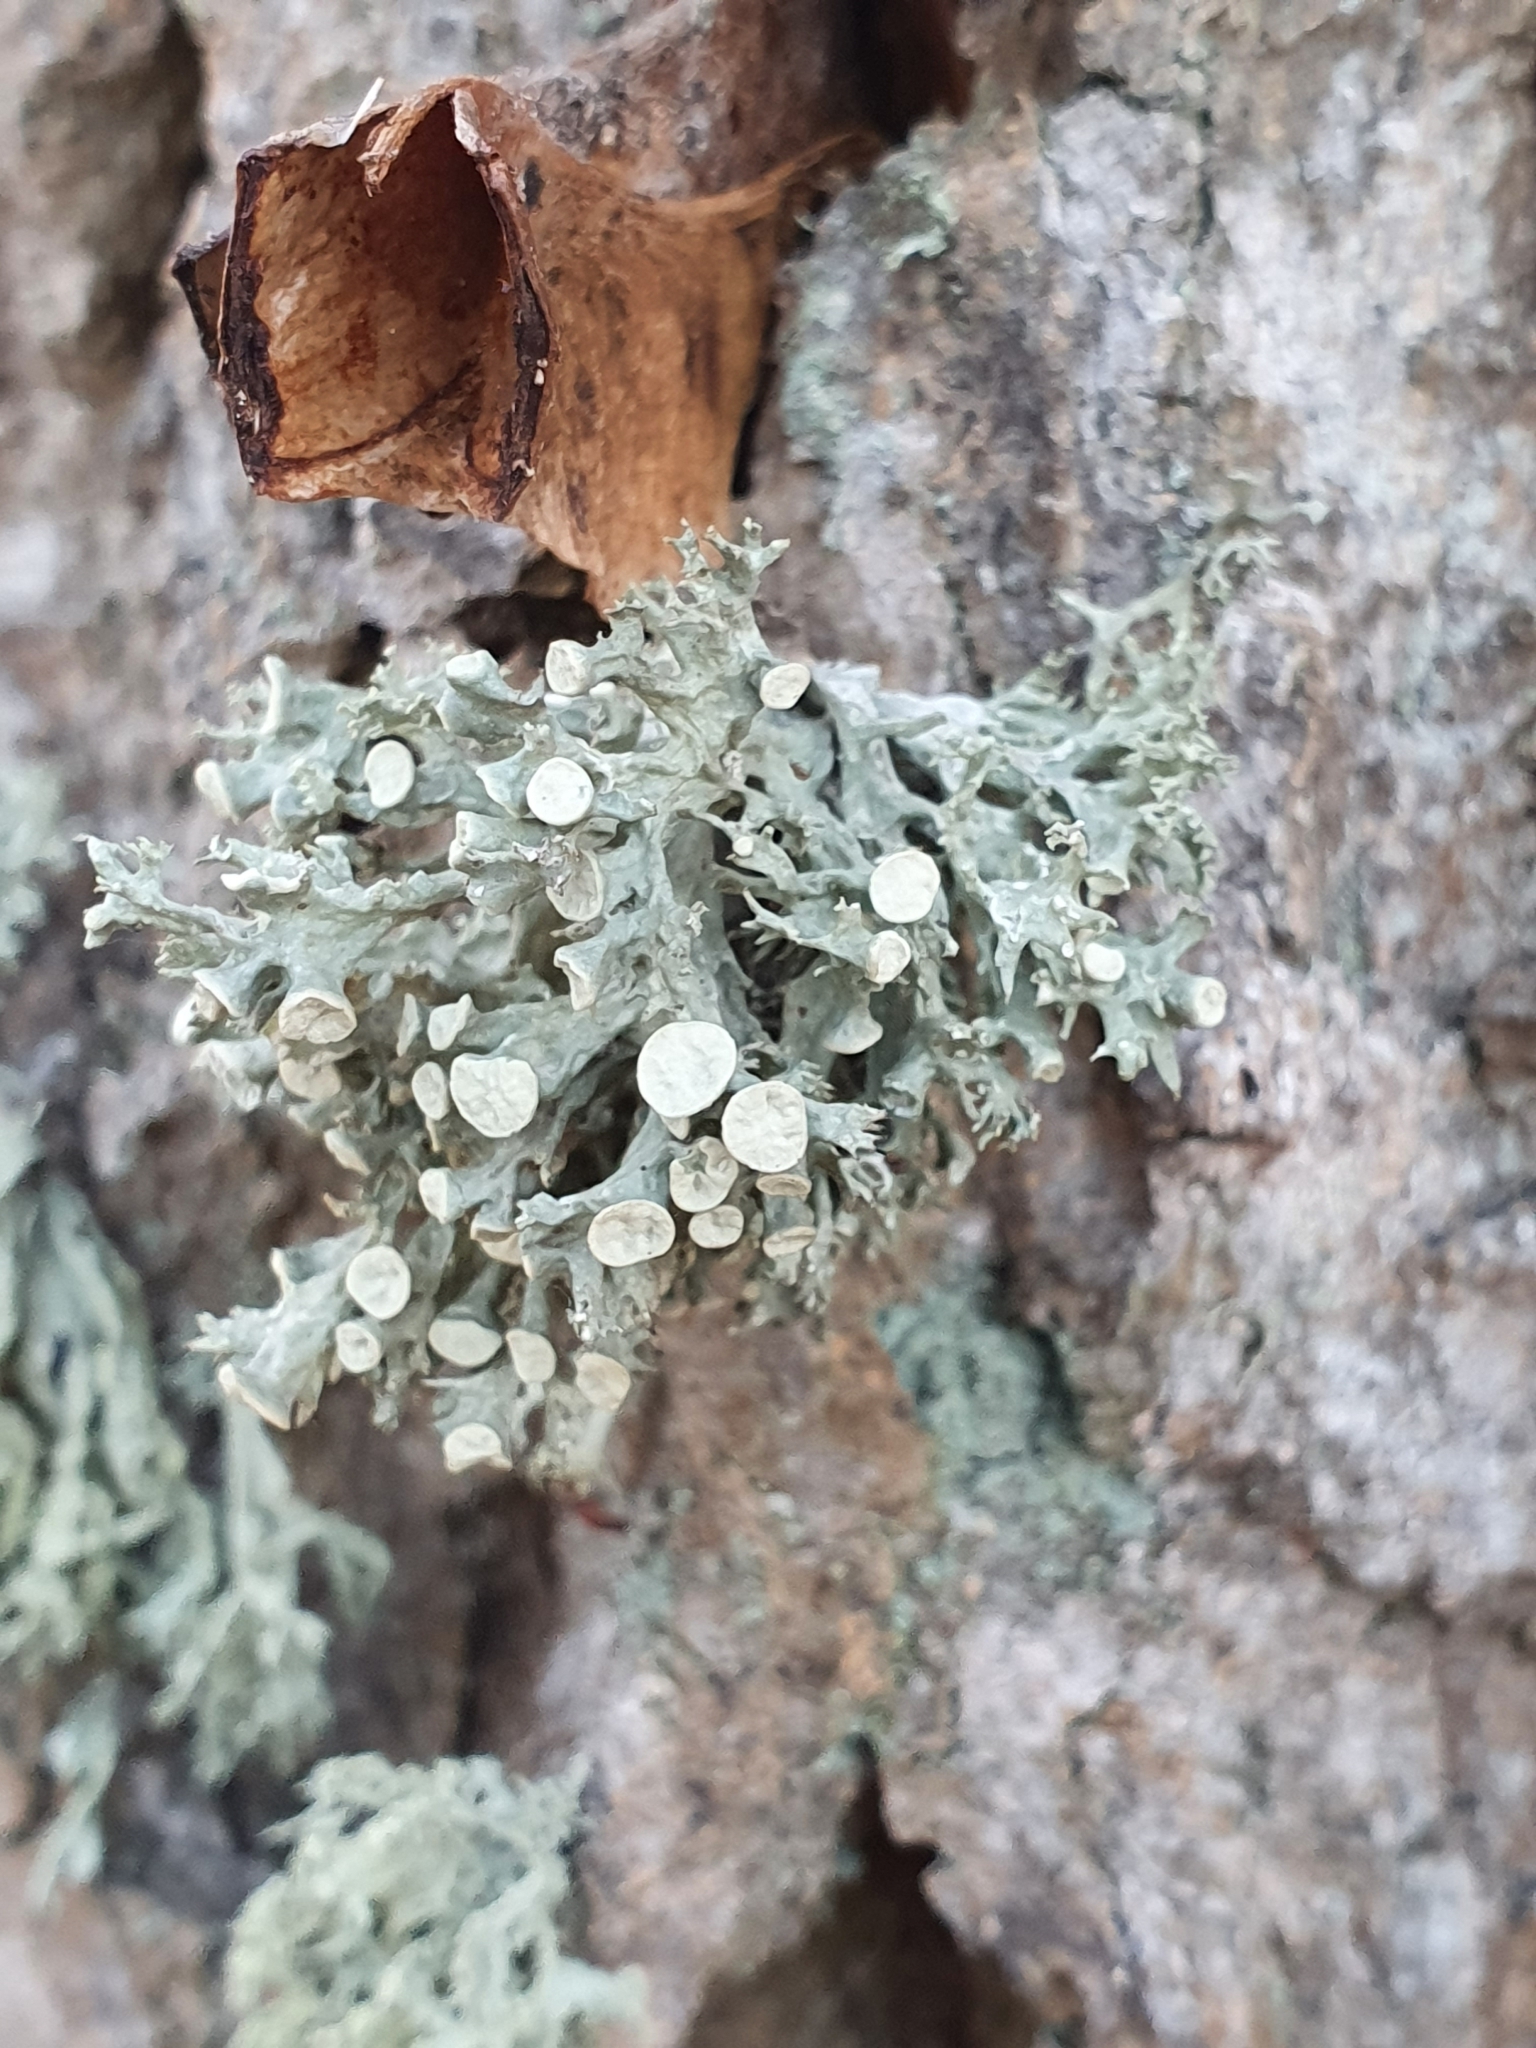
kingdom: Fungi
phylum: Ascomycota
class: Lecanoromycetes
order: Lecanorales
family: Ramalinaceae
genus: Ramalina
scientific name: Ramalina fastigiata
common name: Dotted ribbon lichen
